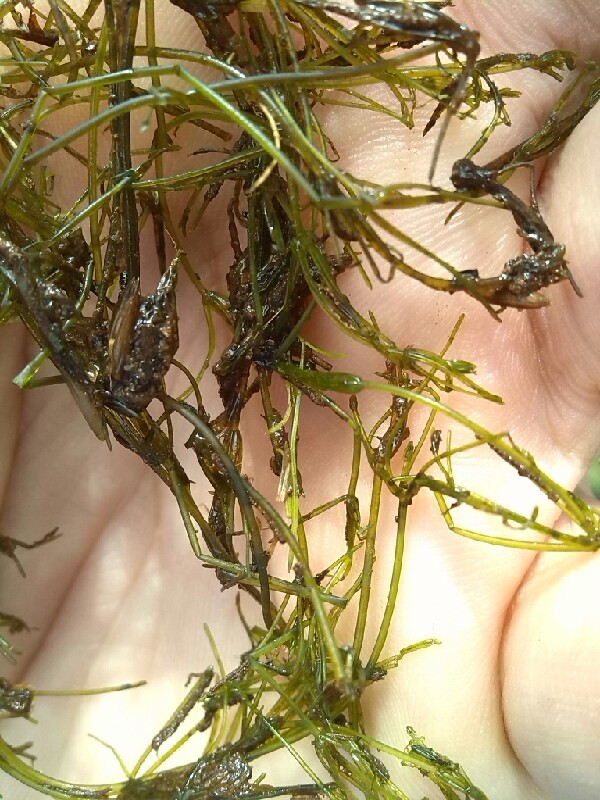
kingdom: Plantae
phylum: Charophyta
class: Charophyceae
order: Charales
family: Characeae
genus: Nitella
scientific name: Nitella
